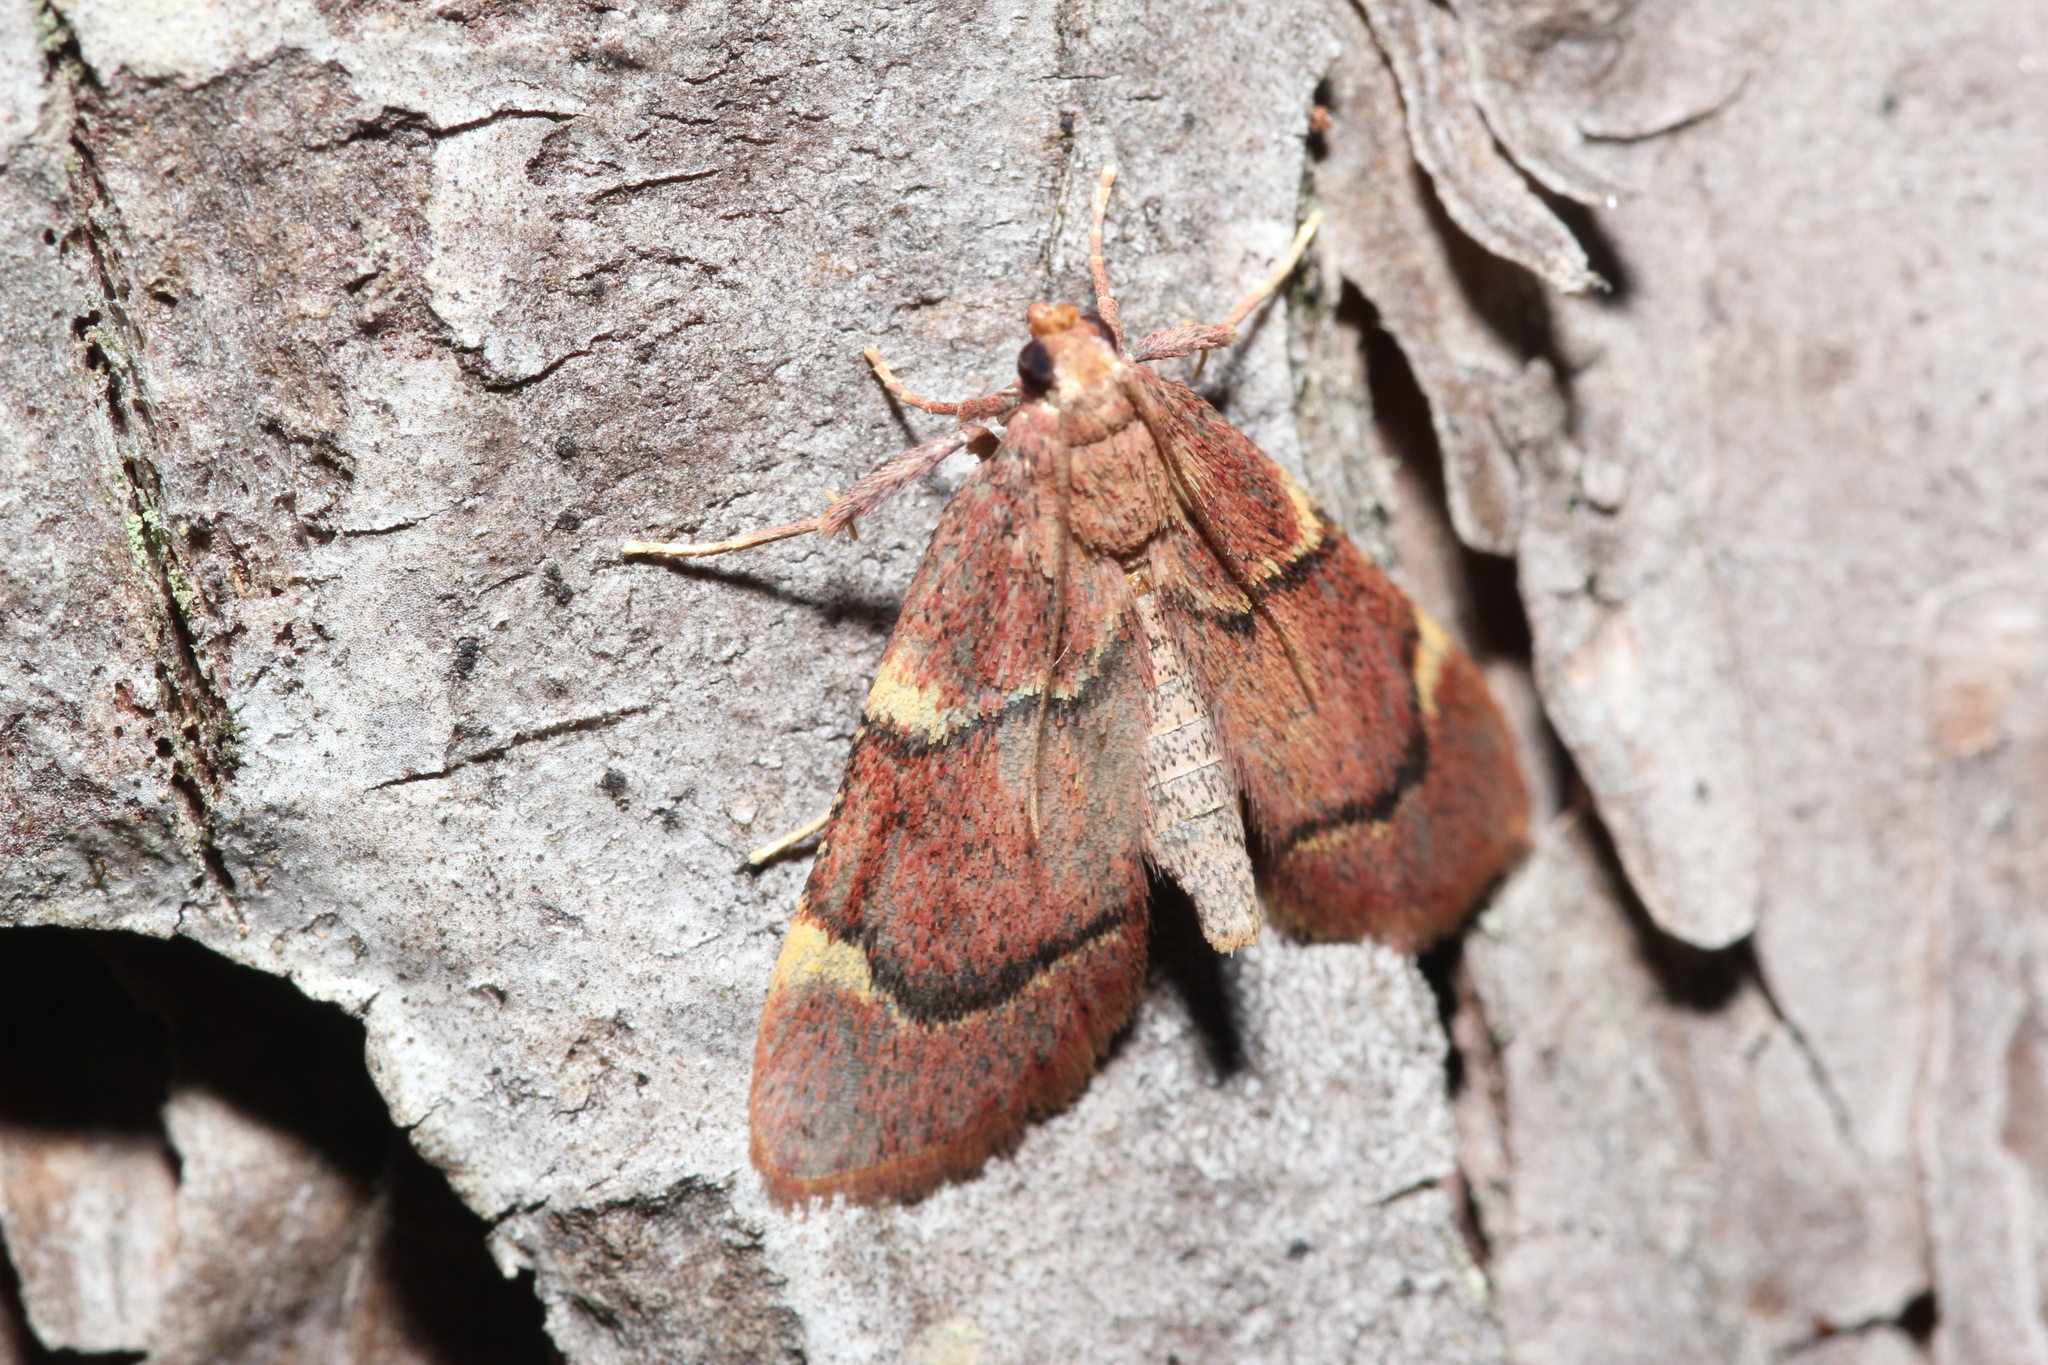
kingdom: Animalia
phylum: Arthropoda
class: Insecta
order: Lepidoptera
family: Pyralidae
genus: Hypsopygia
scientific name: Hypsopygia intermedialis
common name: Red-shawled moth
